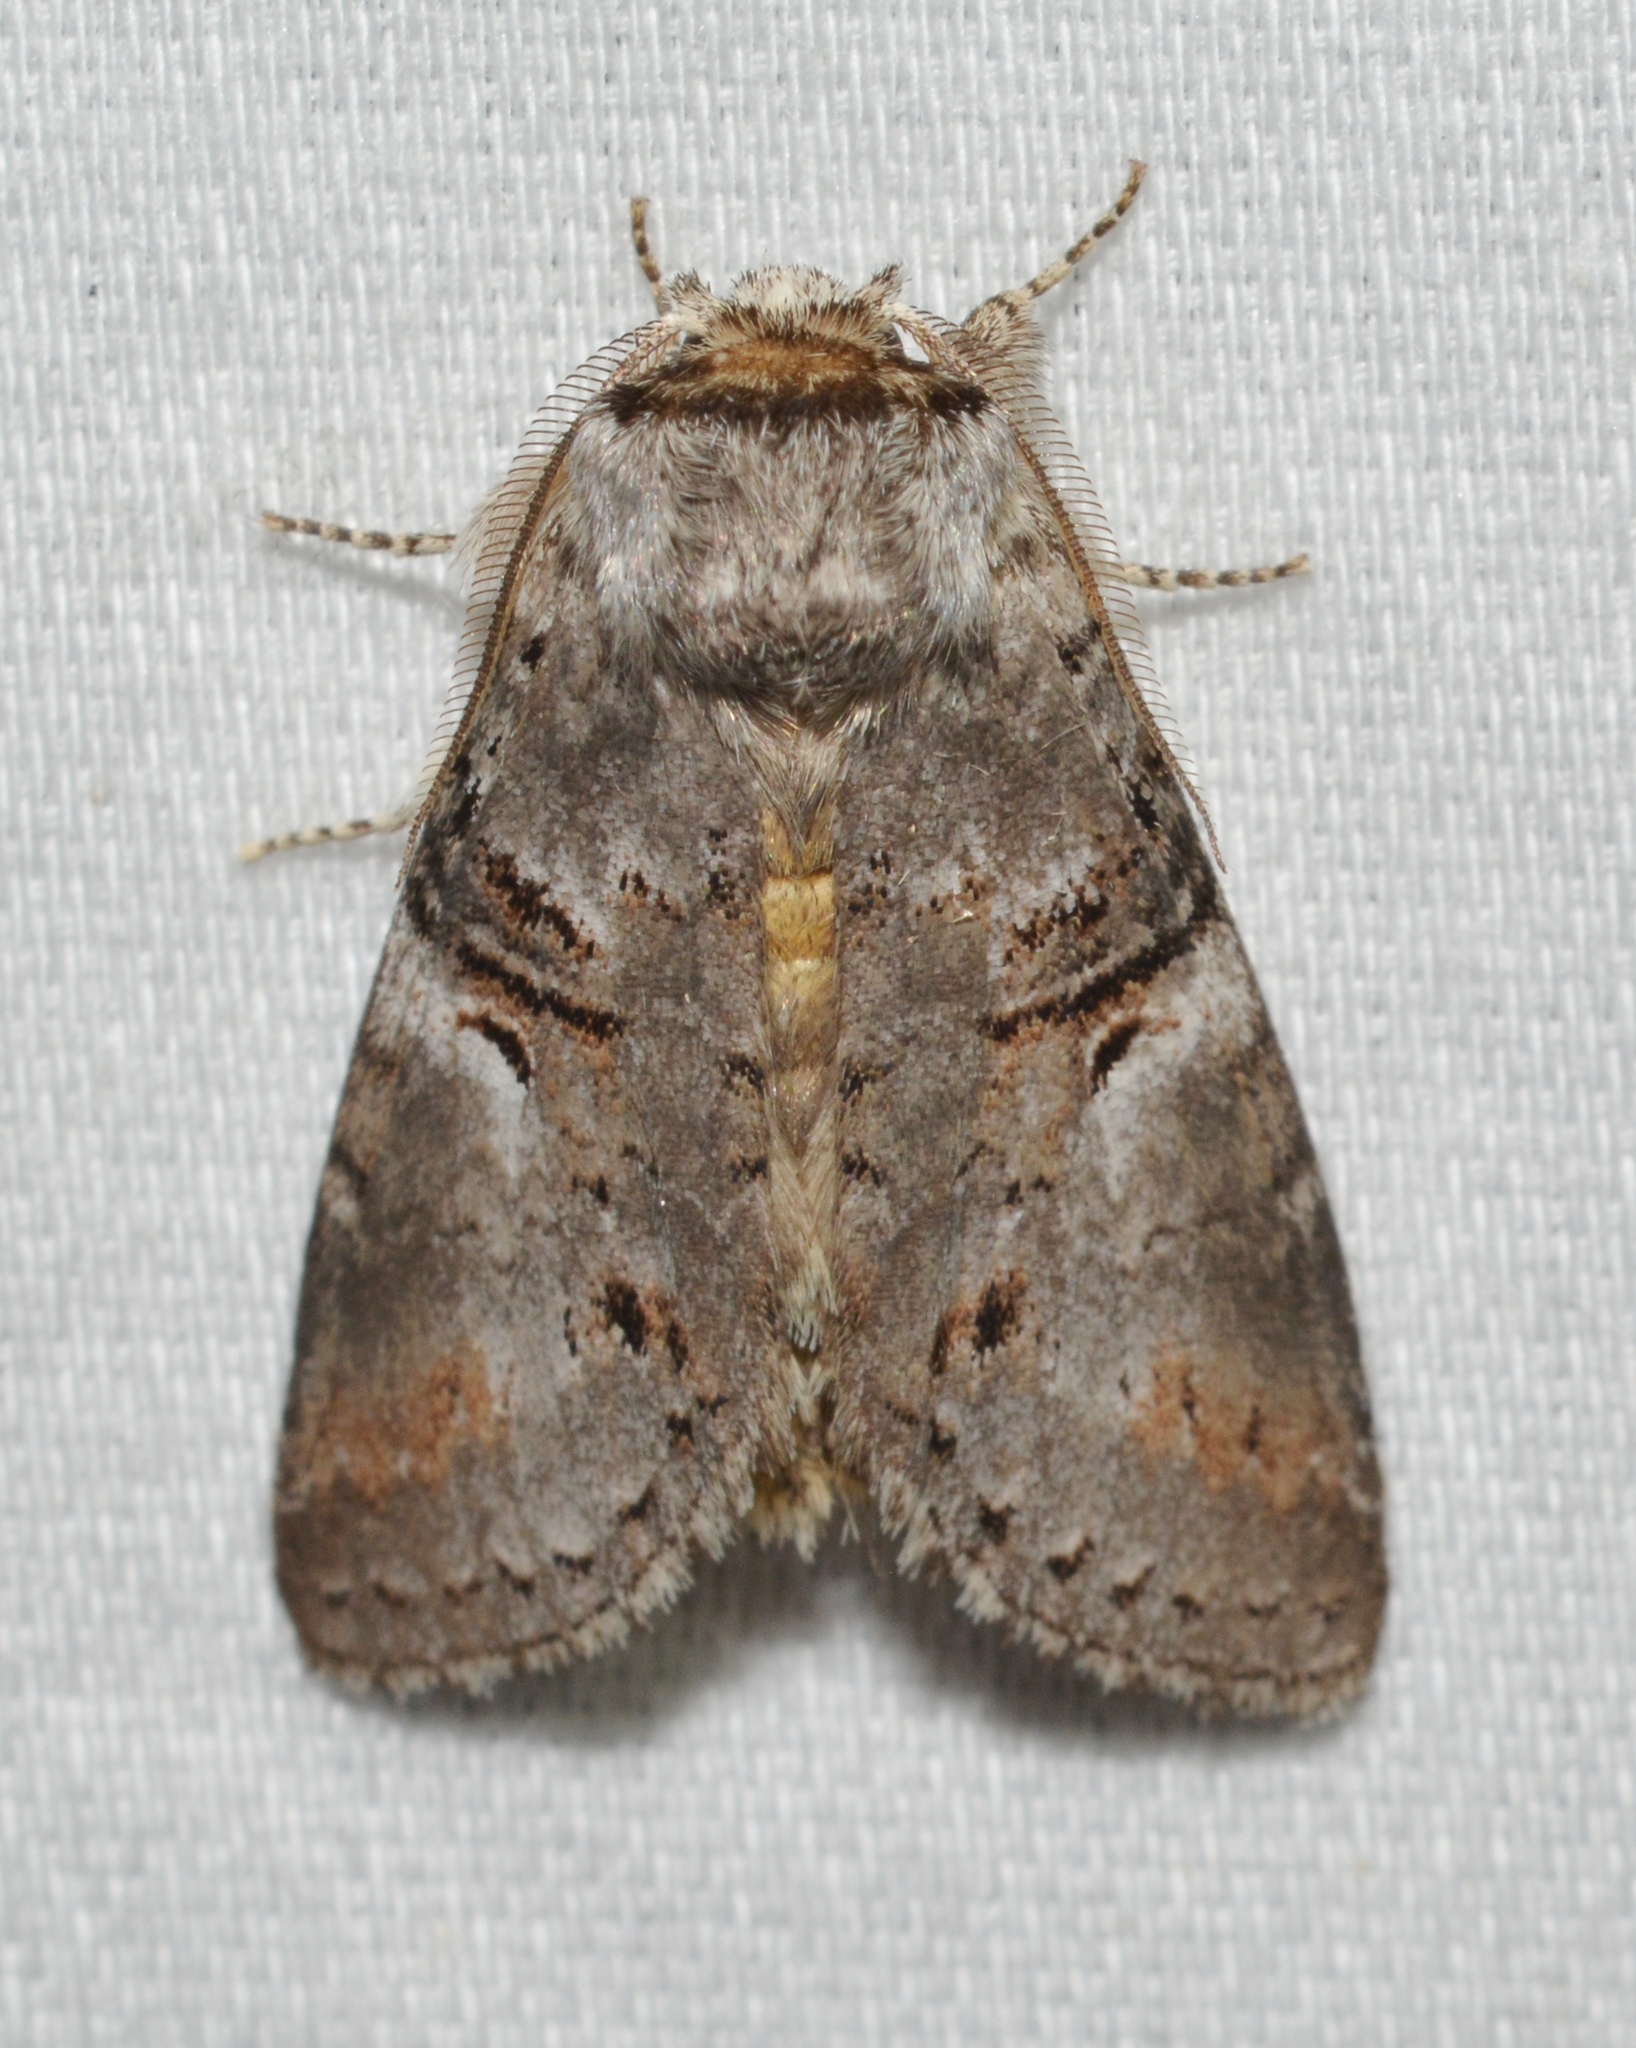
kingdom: Animalia
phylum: Arthropoda
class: Insecta
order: Lepidoptera
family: Notodontidae
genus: Ellida
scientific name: Ellida caniplaga
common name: Linden prominent
